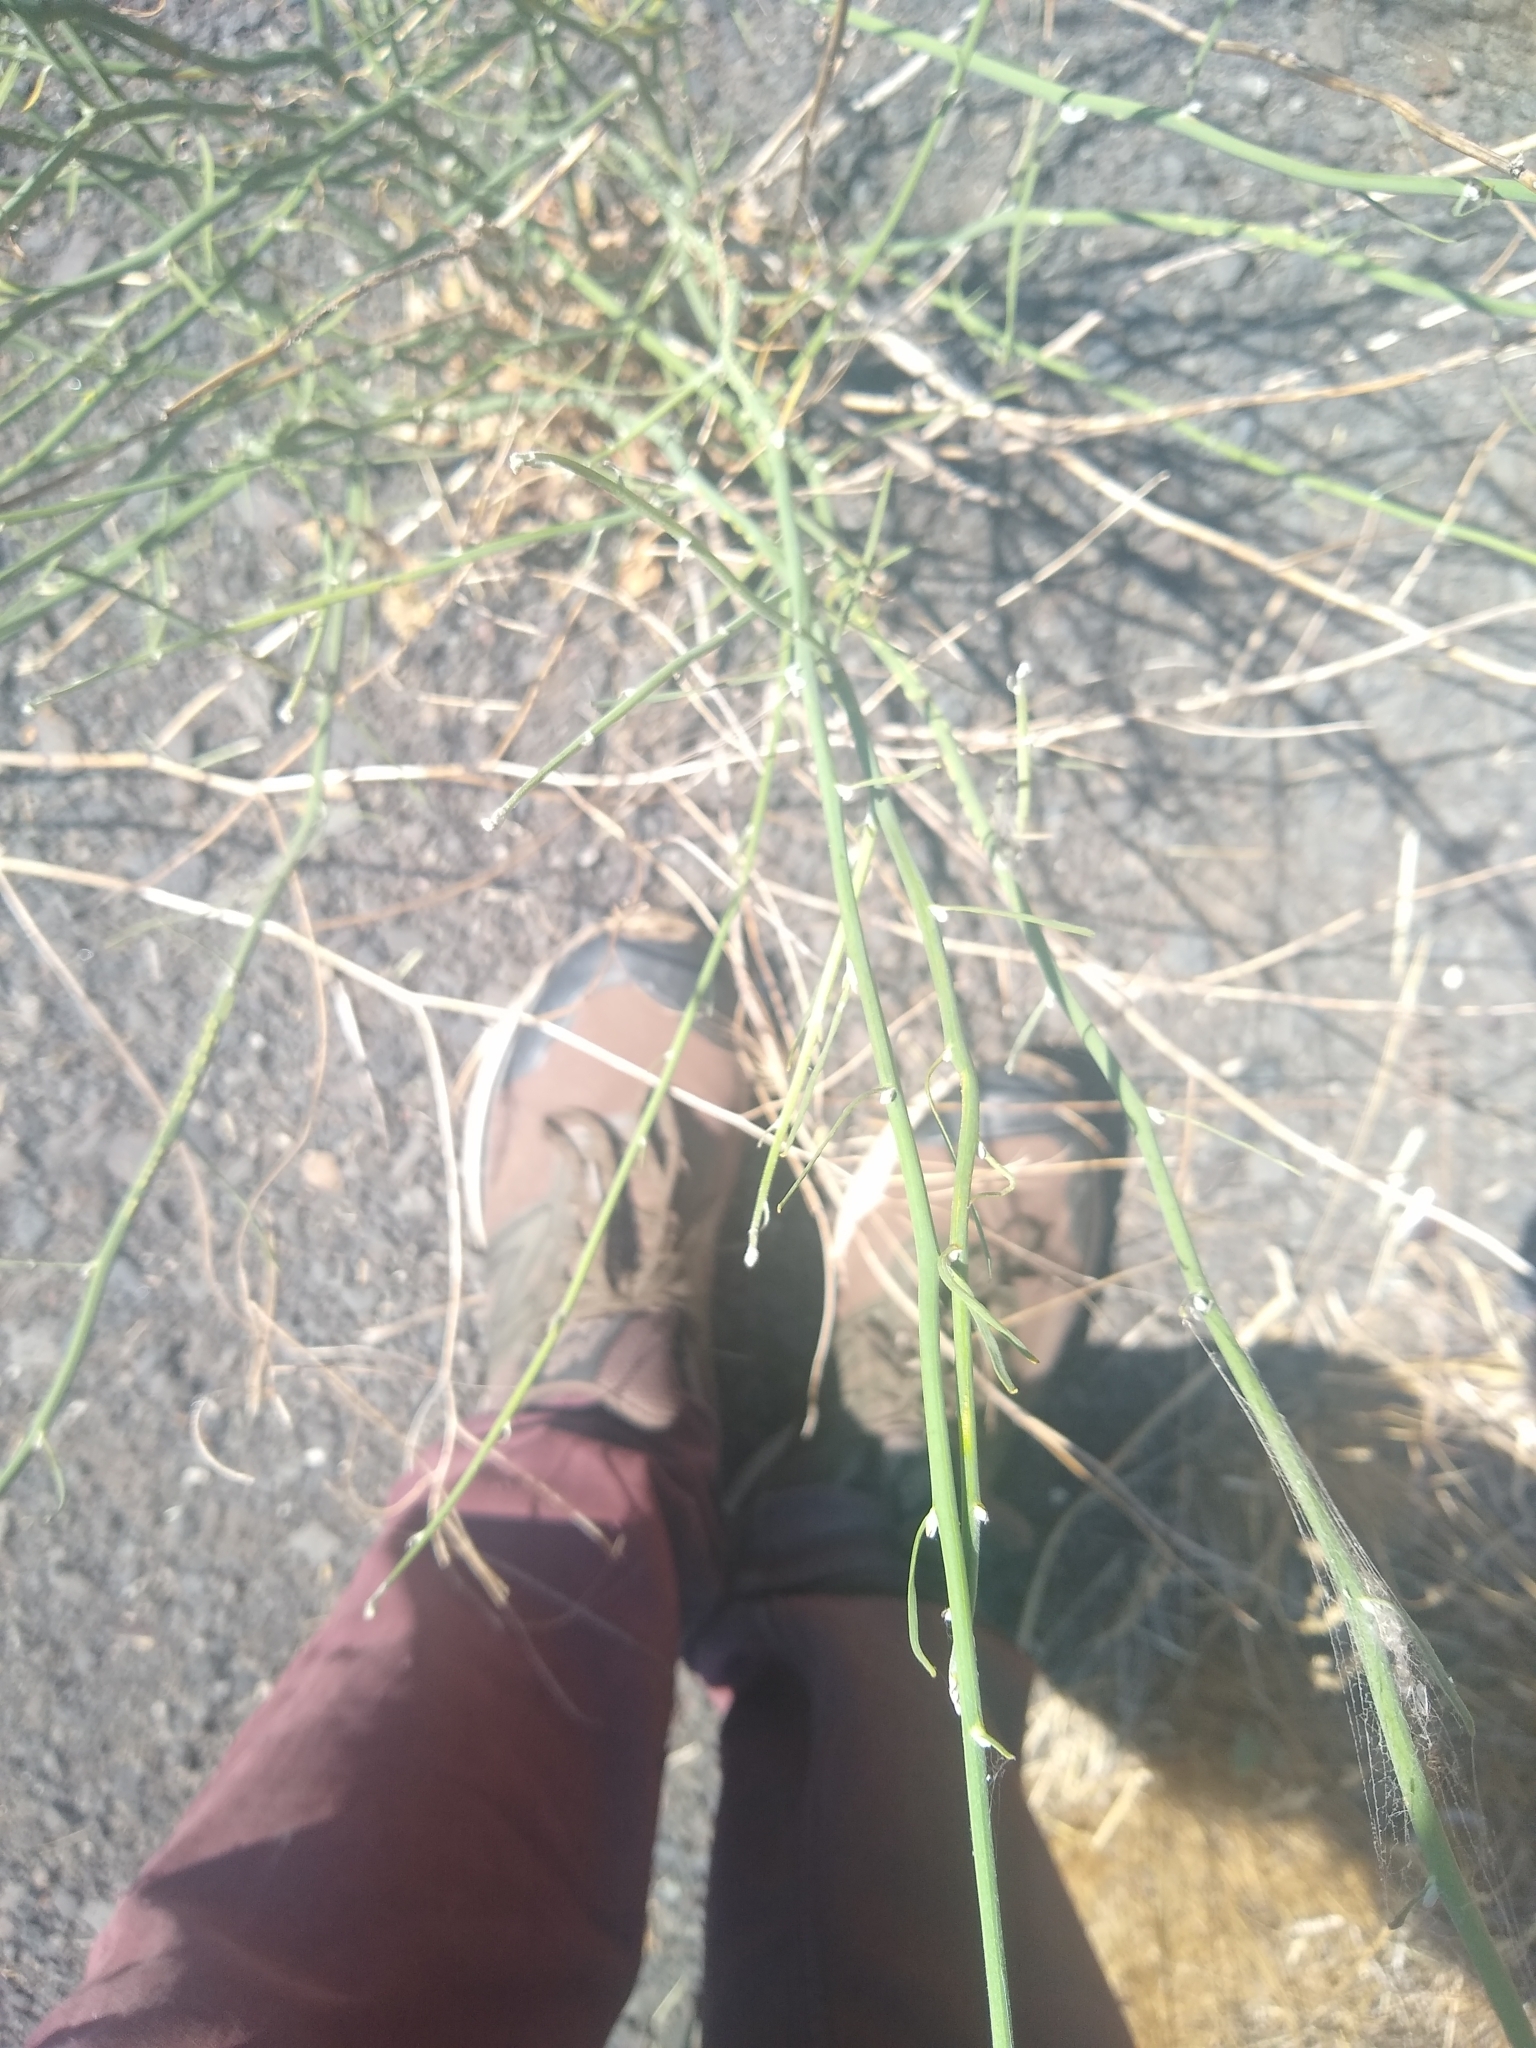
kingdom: Plantae
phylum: Tracheophyta
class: Magnoliopsida
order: Asterales
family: Asteraceae
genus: Chondrilla
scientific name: Chondrilla juncea
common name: Skeleton weed
